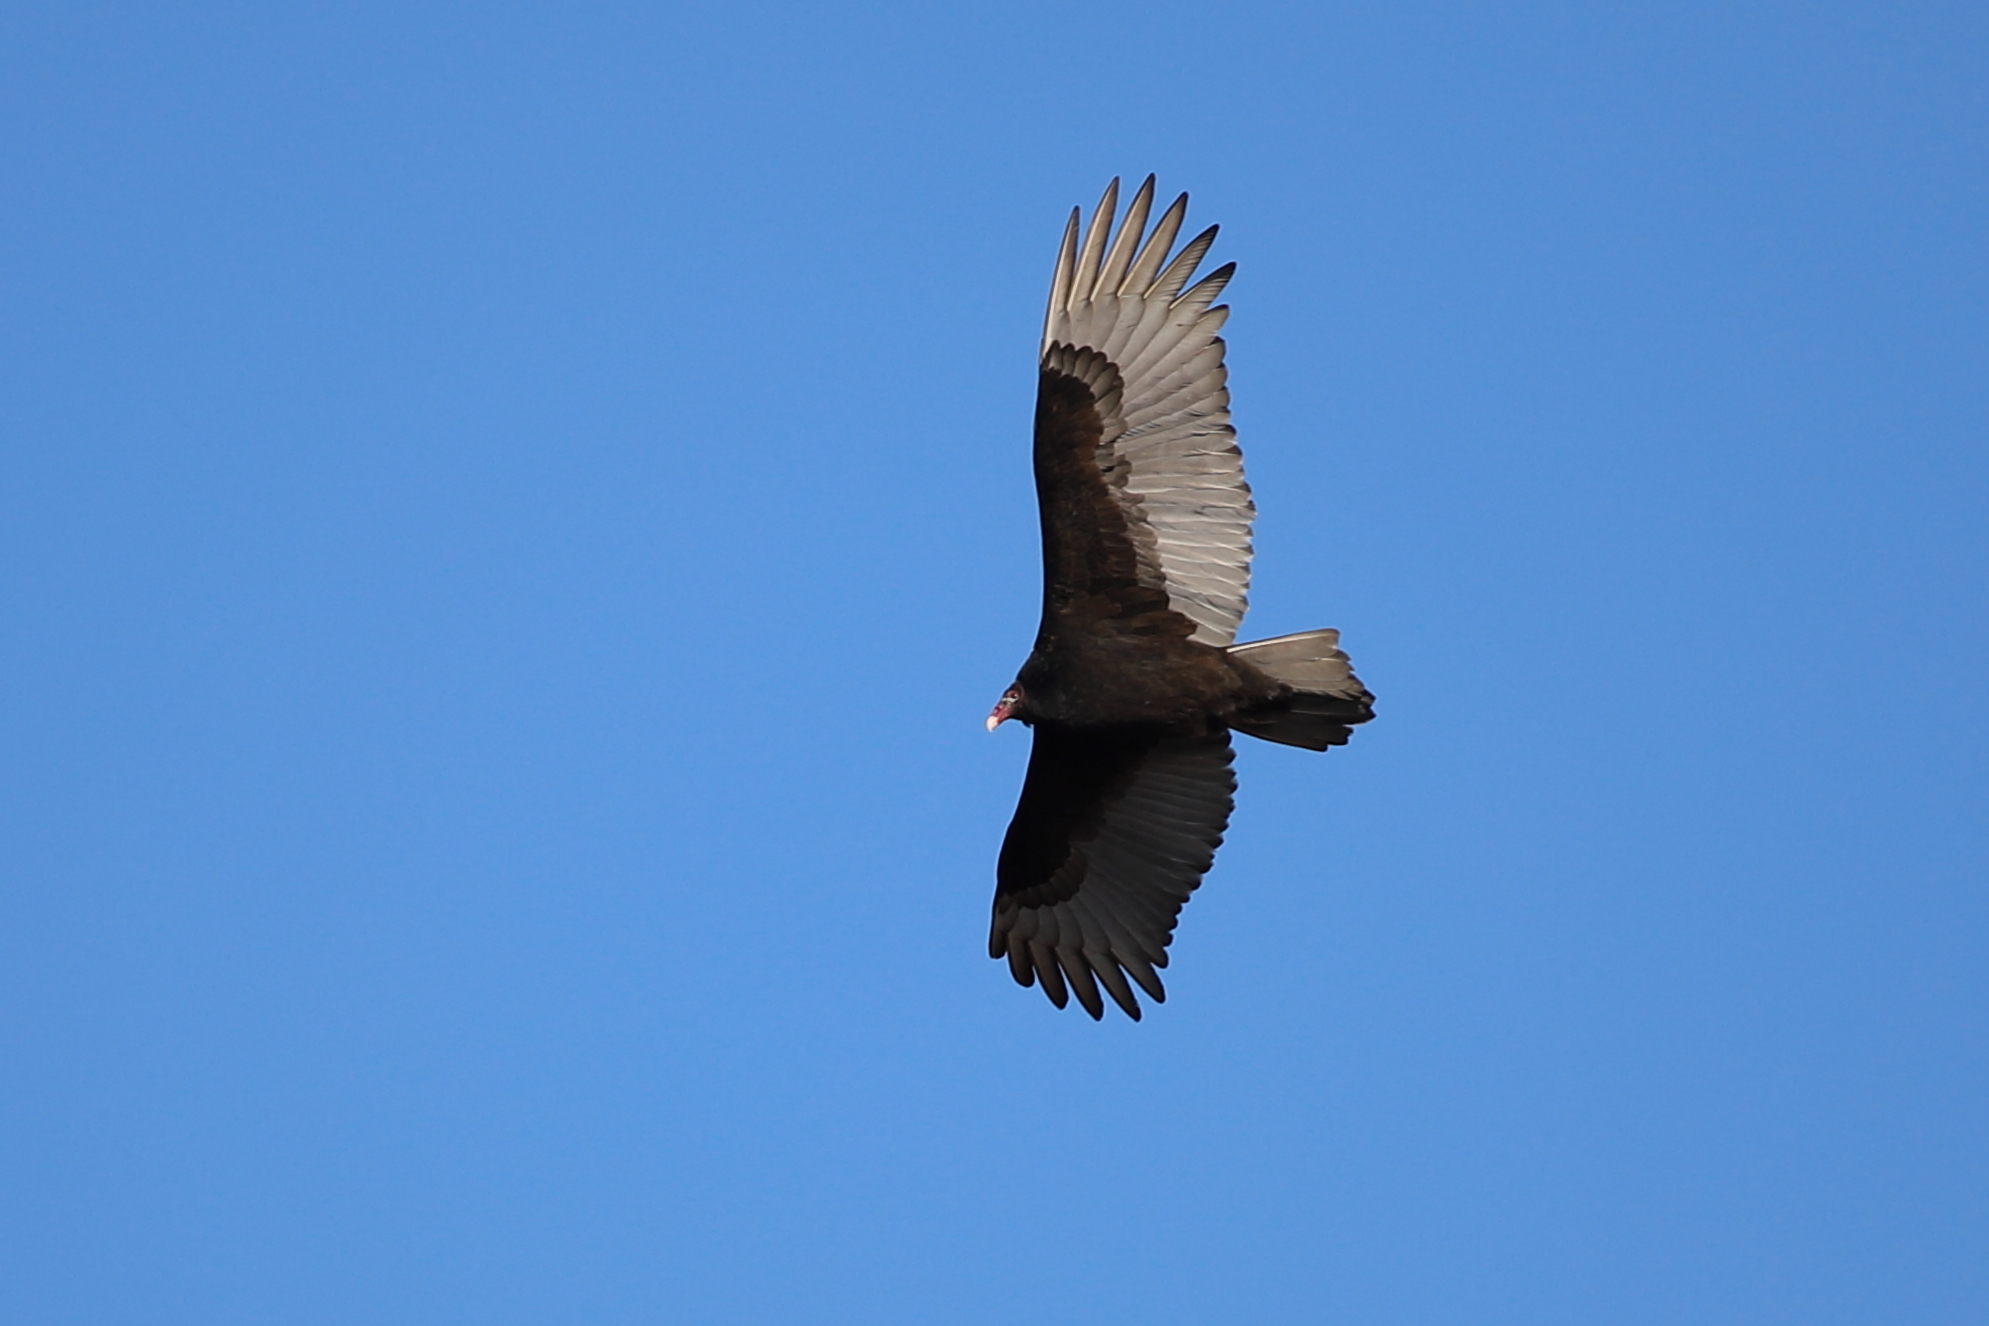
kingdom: Animalia
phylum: Chordata
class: Aves
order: Accipitriformes
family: Cathartidae
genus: Cathartes
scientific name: Cathartes aura
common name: Turkey vulture
